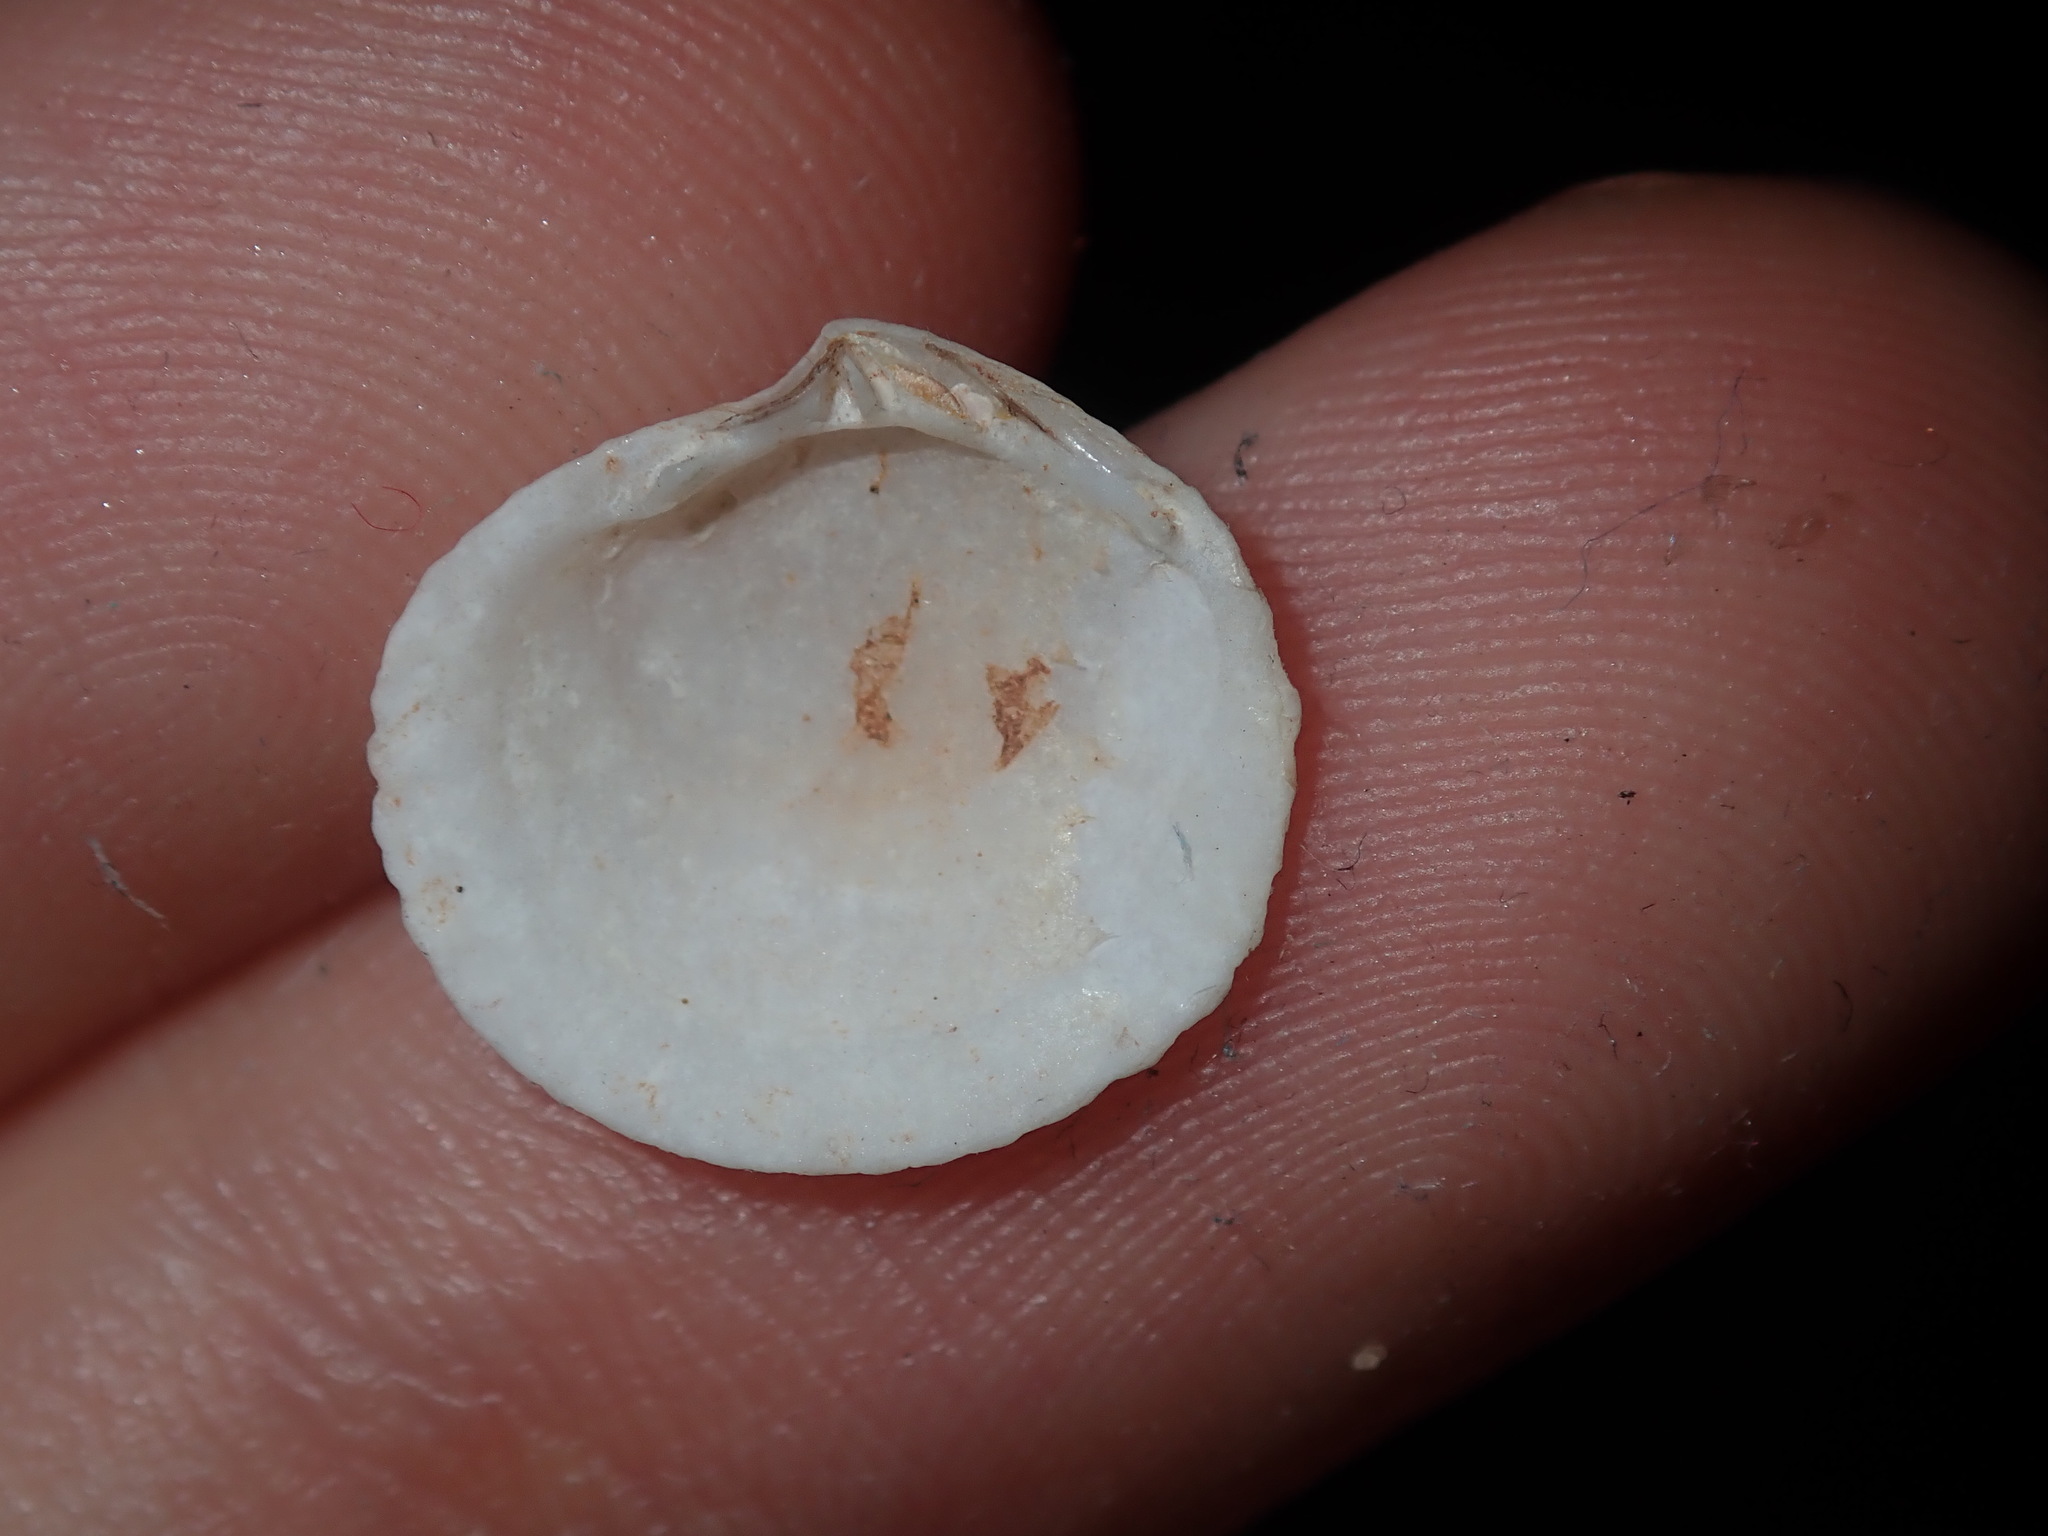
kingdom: Animalia
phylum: Mollusca
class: Bivalvia
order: Lucinida
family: Lucinidae
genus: Codakia
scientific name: Codakia rugifera
